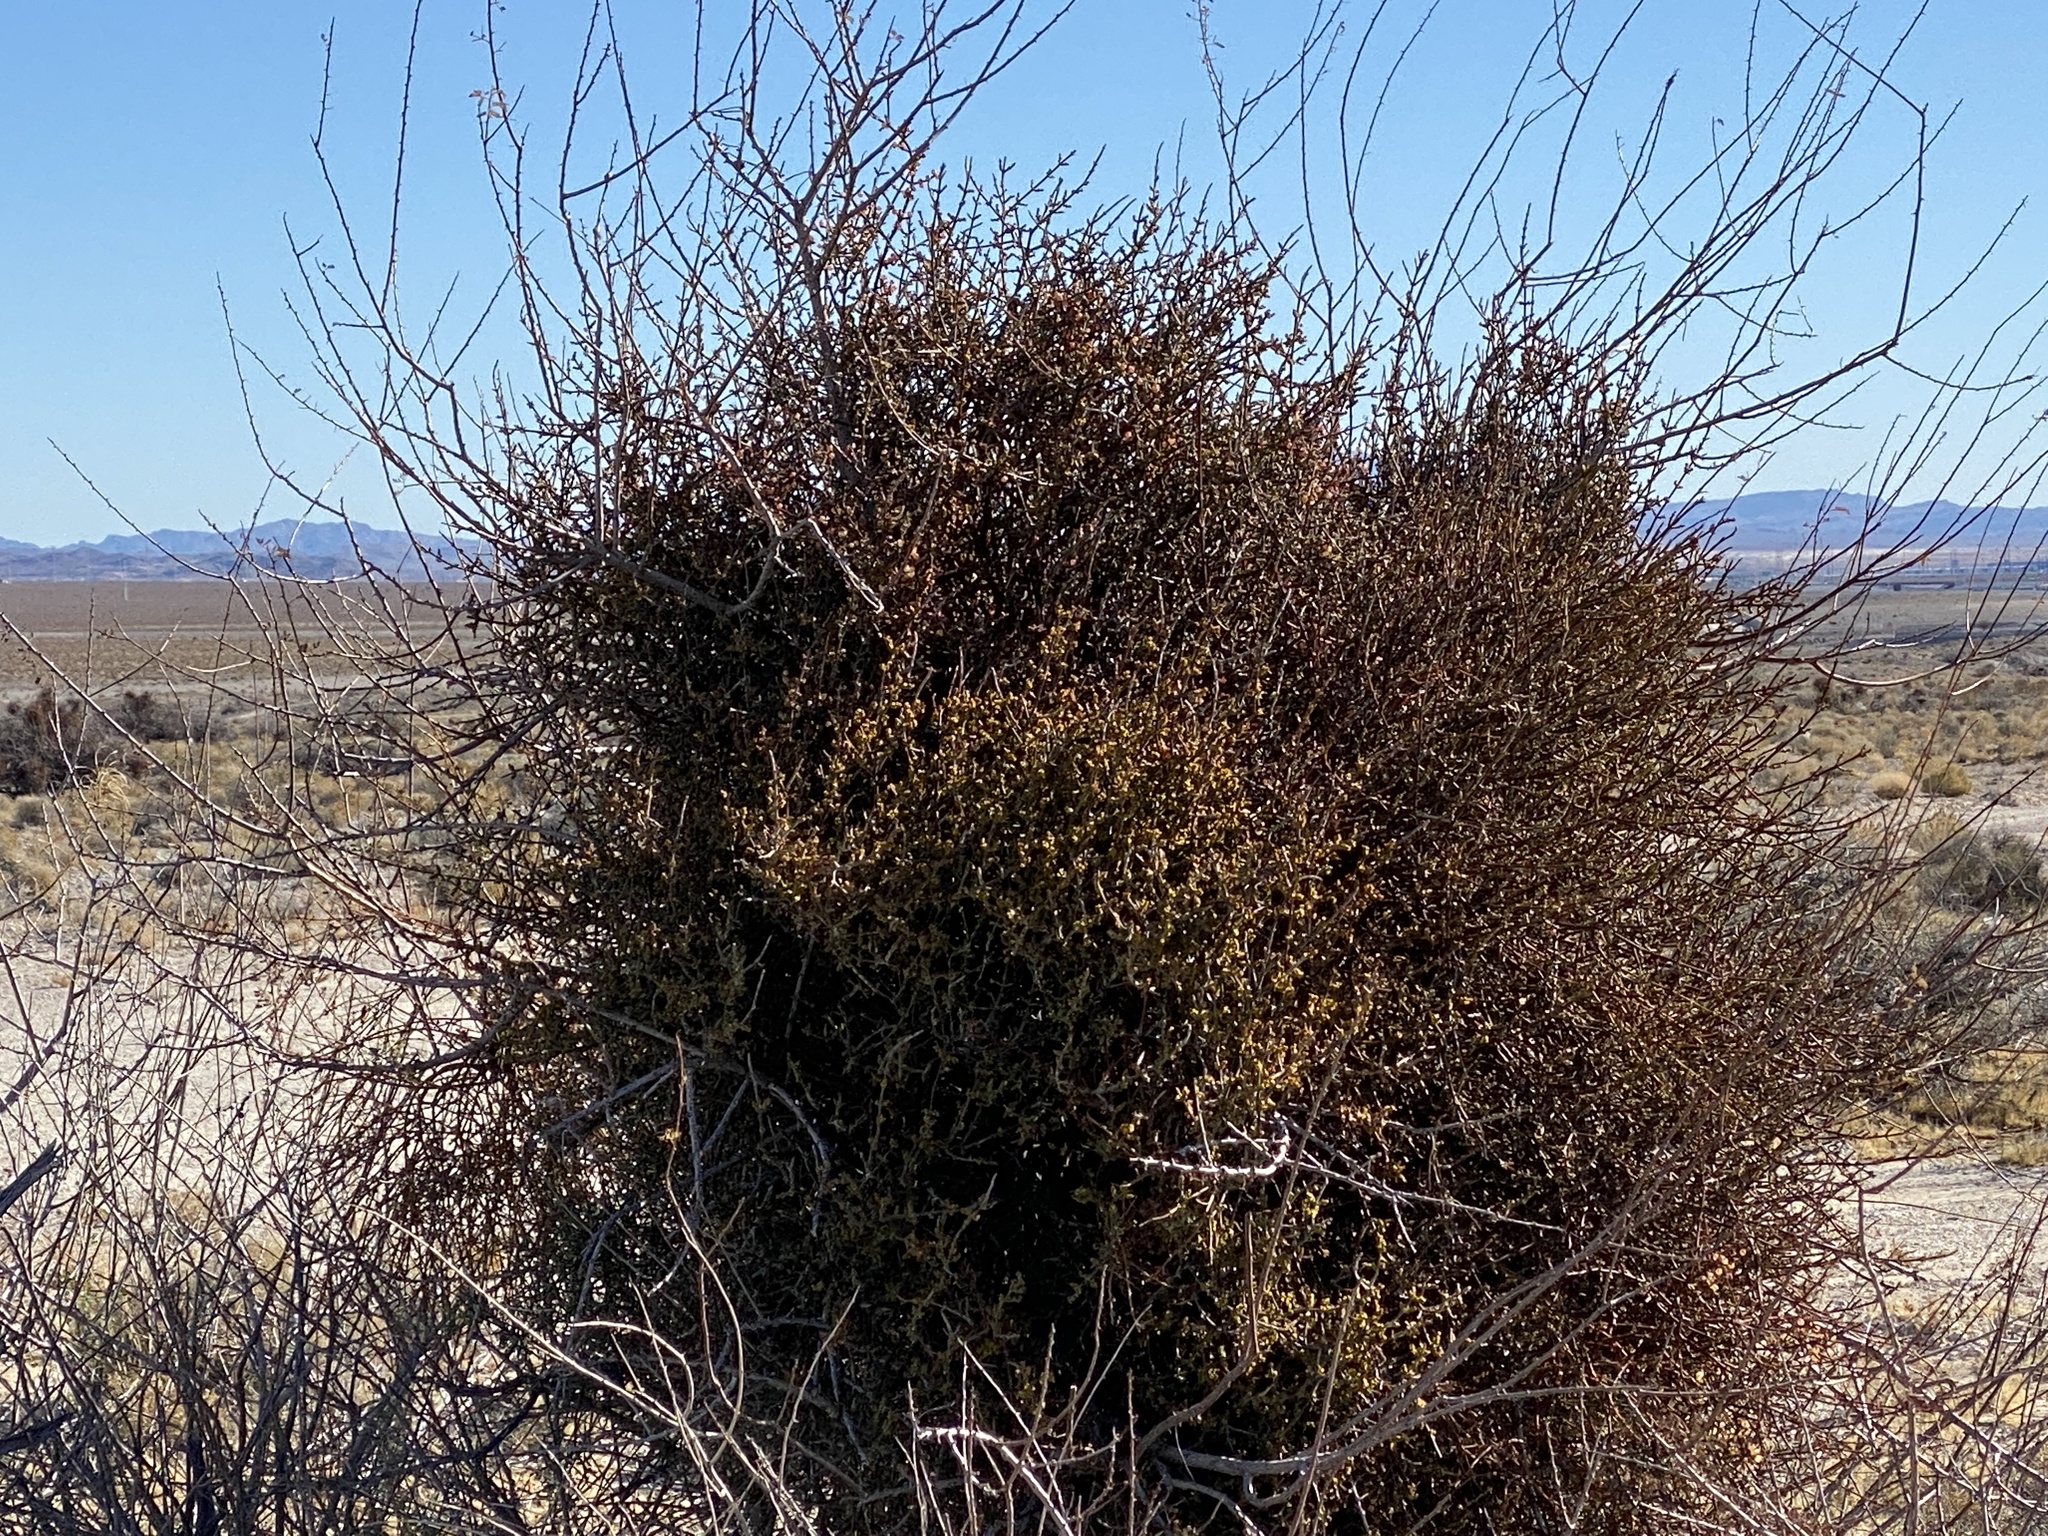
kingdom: Plantae
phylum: Tracheophyta
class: Magnoliopsida
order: Santalales
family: Viscaceae
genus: Phoradendron
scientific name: Phoradendron californicum
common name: Acacia mistletoe
